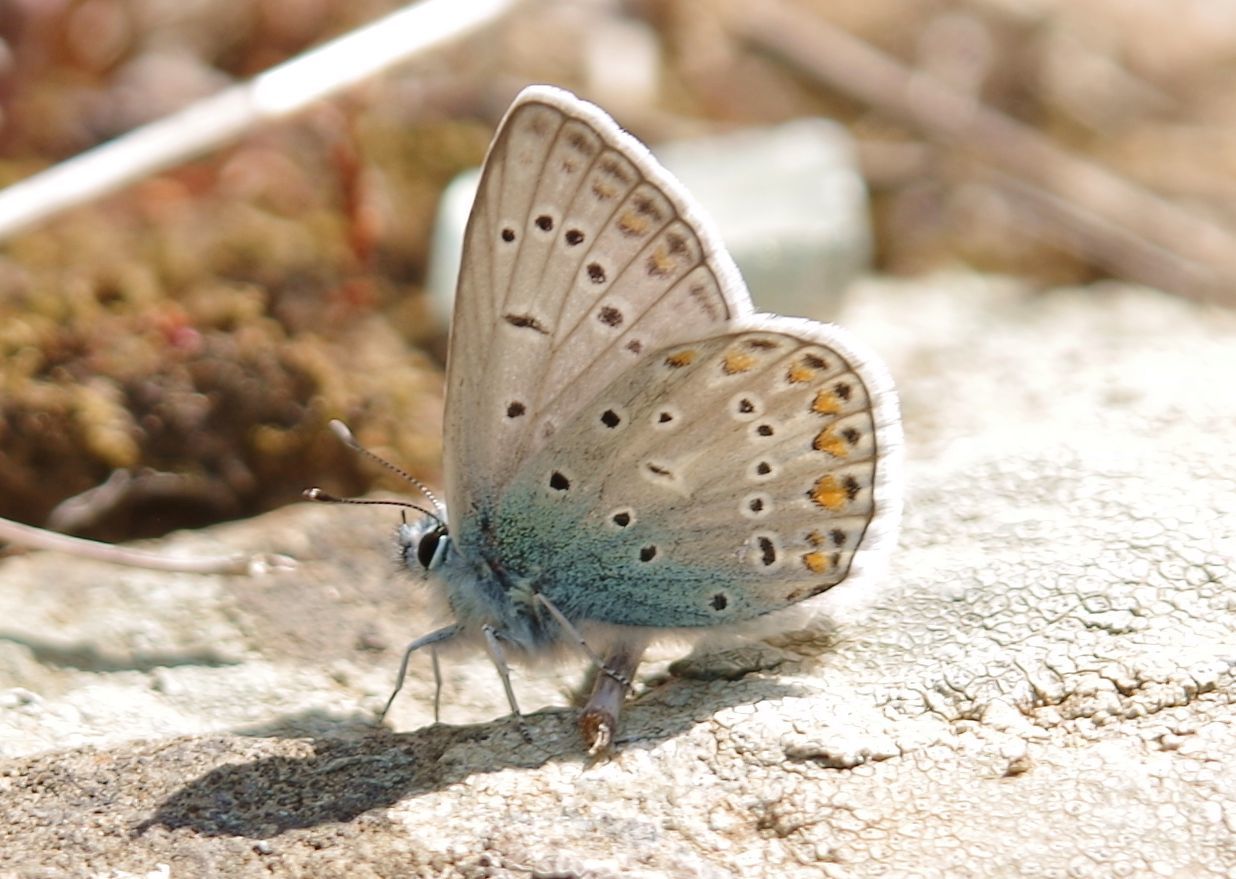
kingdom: Animalia
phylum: Arthropoda
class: Insecta
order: Lepidoptera
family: Lycaenidae
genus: Polyommatus
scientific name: Polyommatus icarus
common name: Common blue
